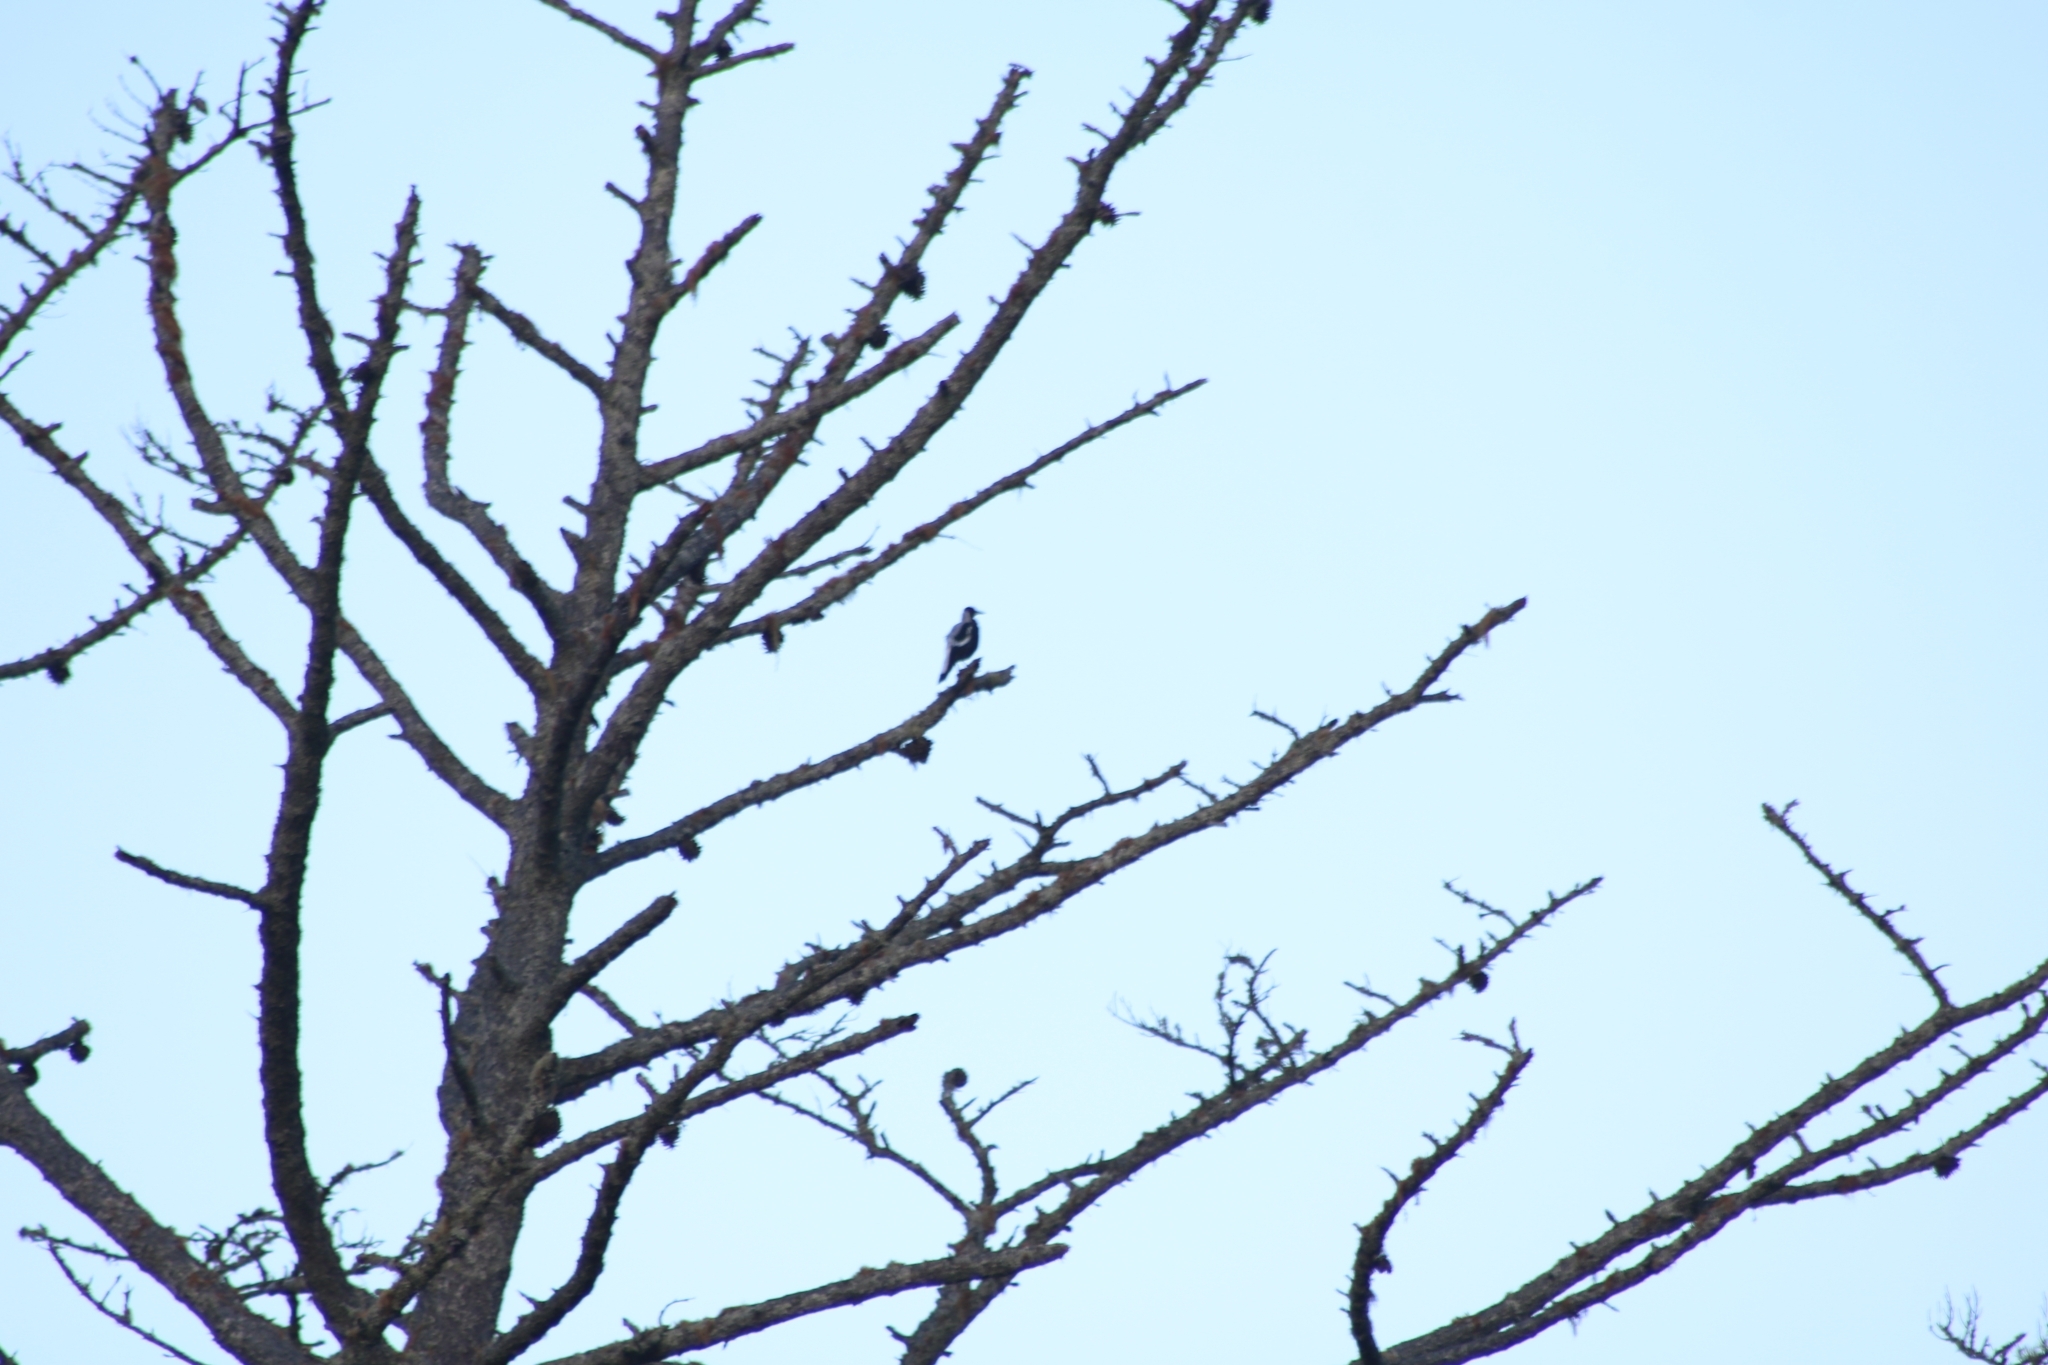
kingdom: Animalia
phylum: Chordata
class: Aves
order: Passeriformes
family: Cracticidae
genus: Gymnorhina
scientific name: Gymnorhina tibicen
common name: Australian magpie
